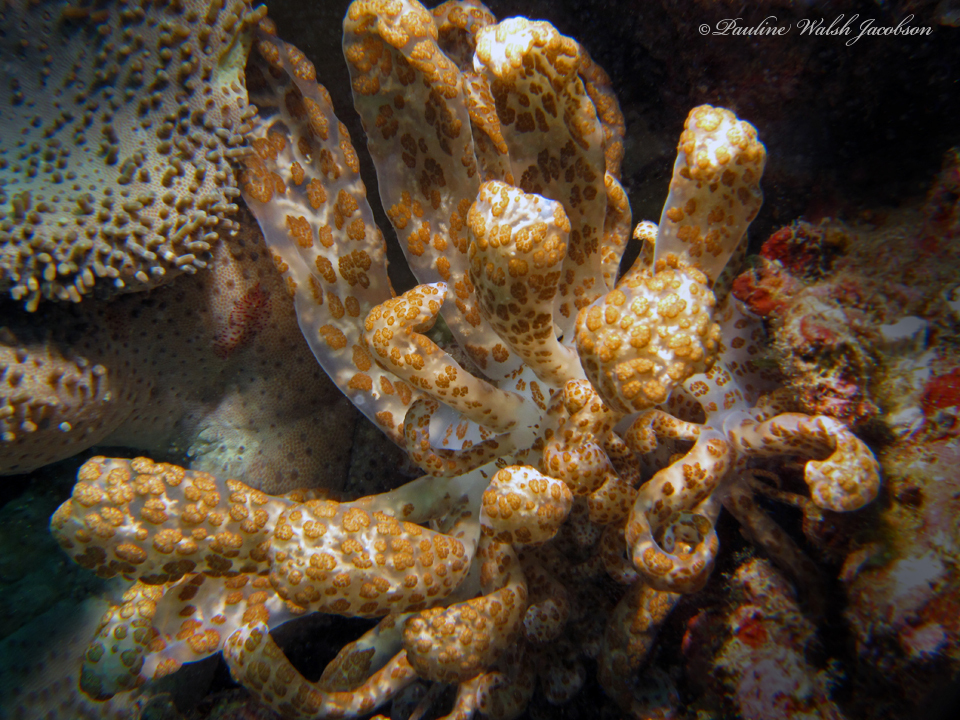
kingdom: Animalia
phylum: Mollusca
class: Gastropoda
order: Nudibranchia
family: Myrrhinidae
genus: Phyllodesmium
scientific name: Phyllodesmium longicirrum
